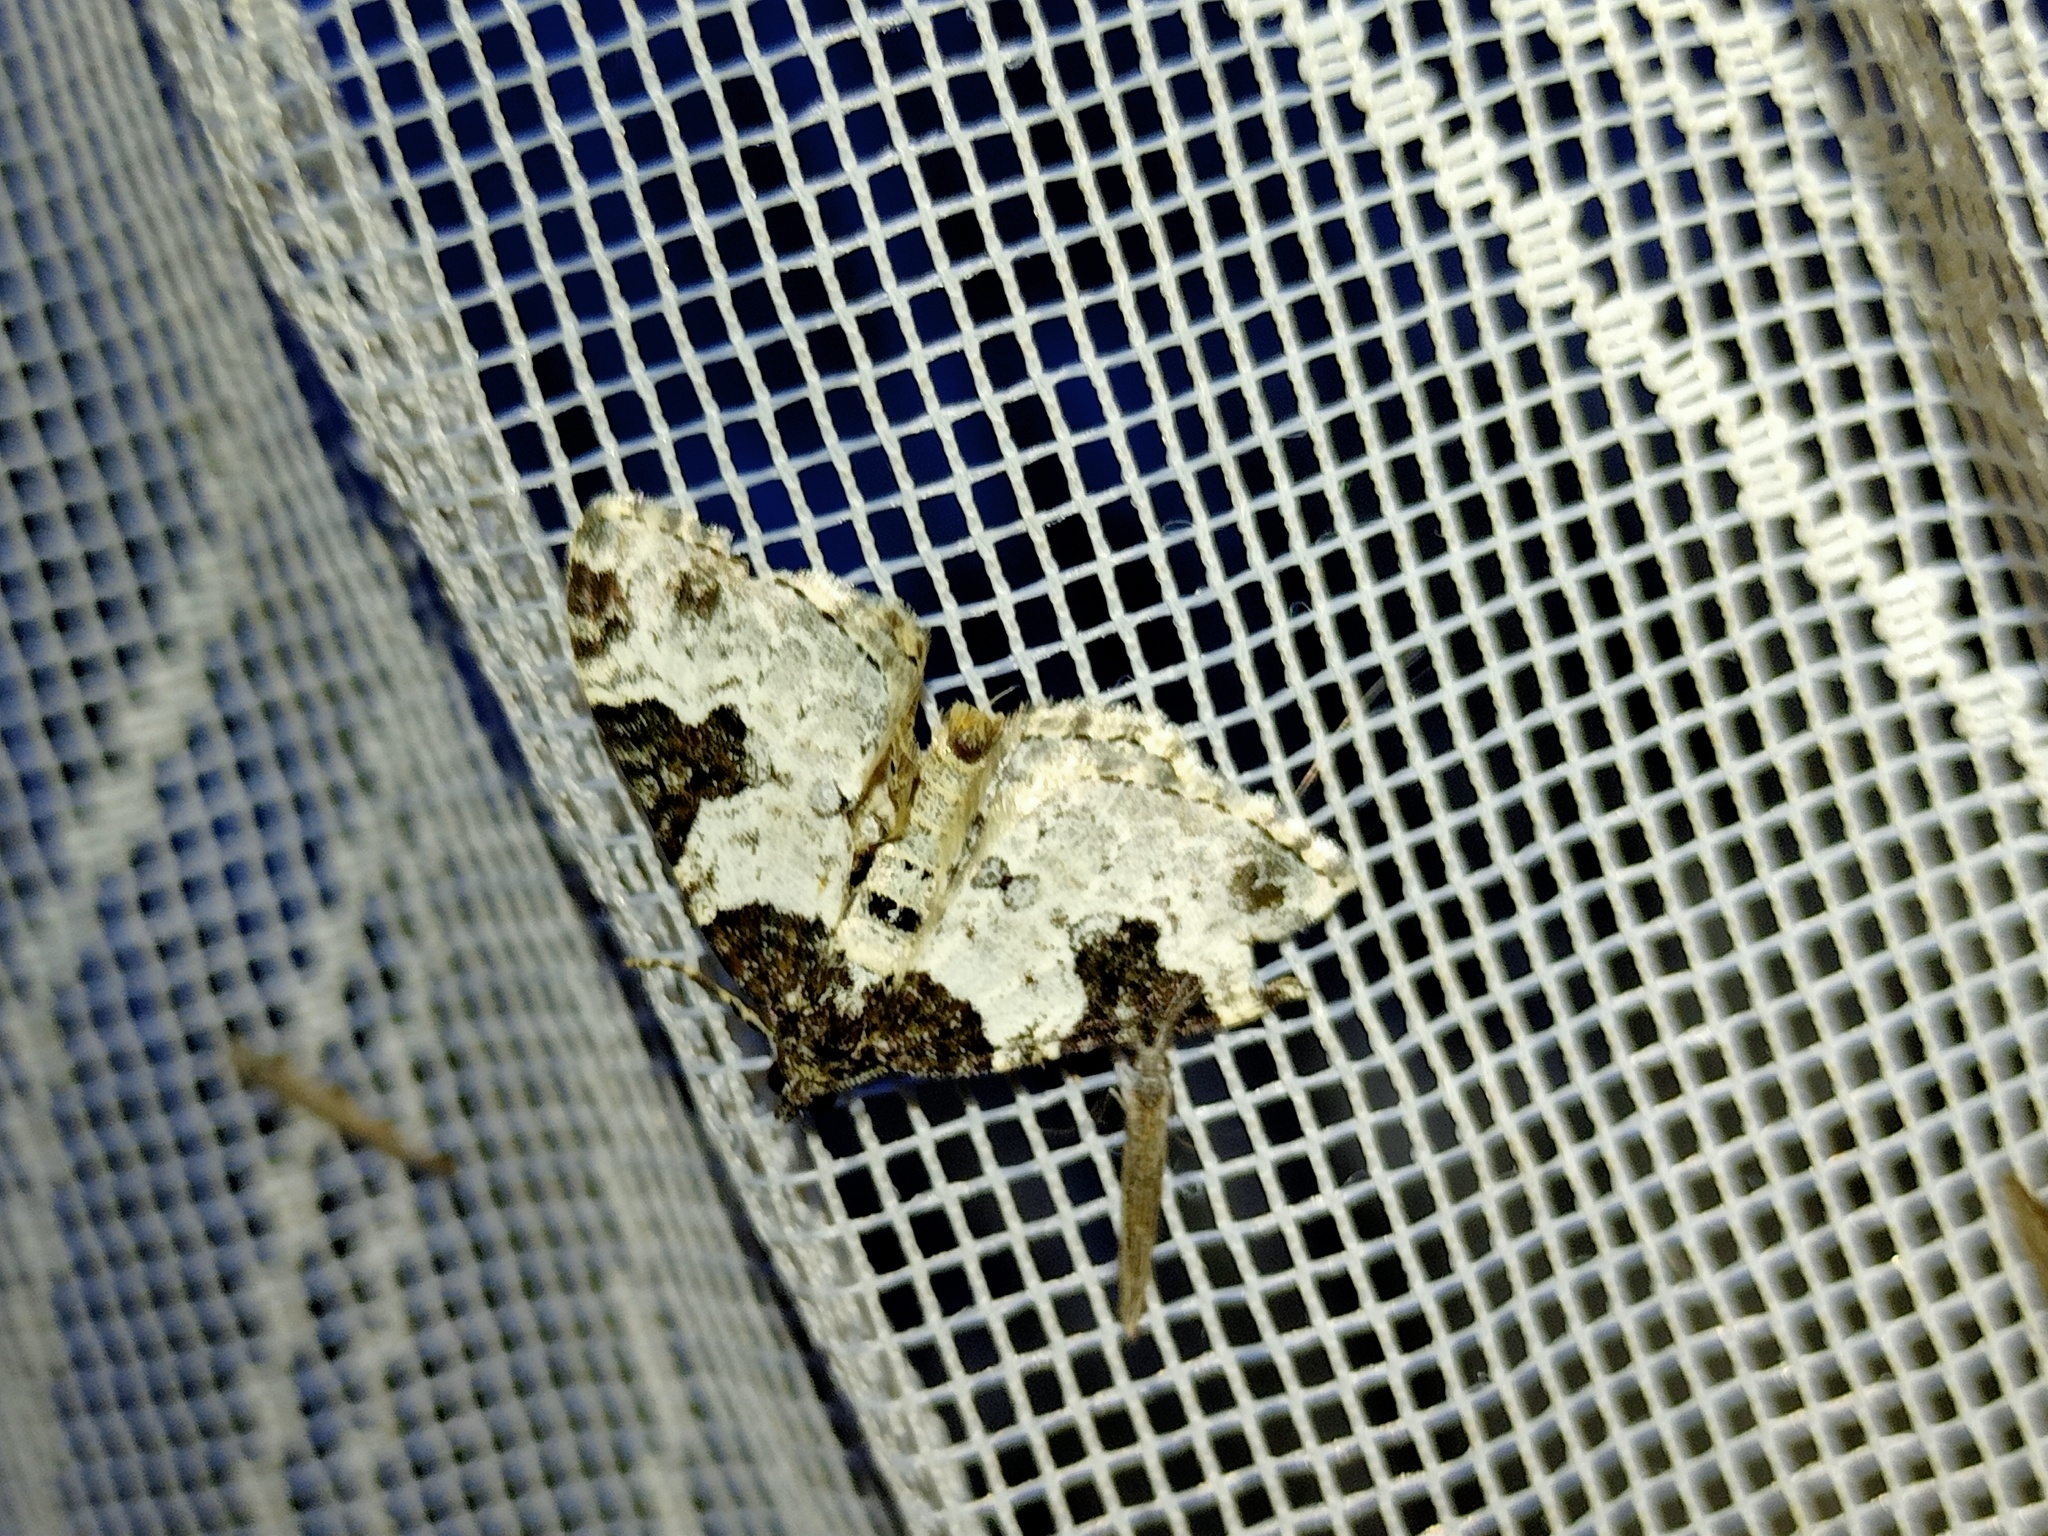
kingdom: Animalia
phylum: Arthropoda
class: Insecta
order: Lepidoptera
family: Geometridae
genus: Xanthorhoe
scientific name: Xanthorhoe fluctuata
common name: Garden carpet
